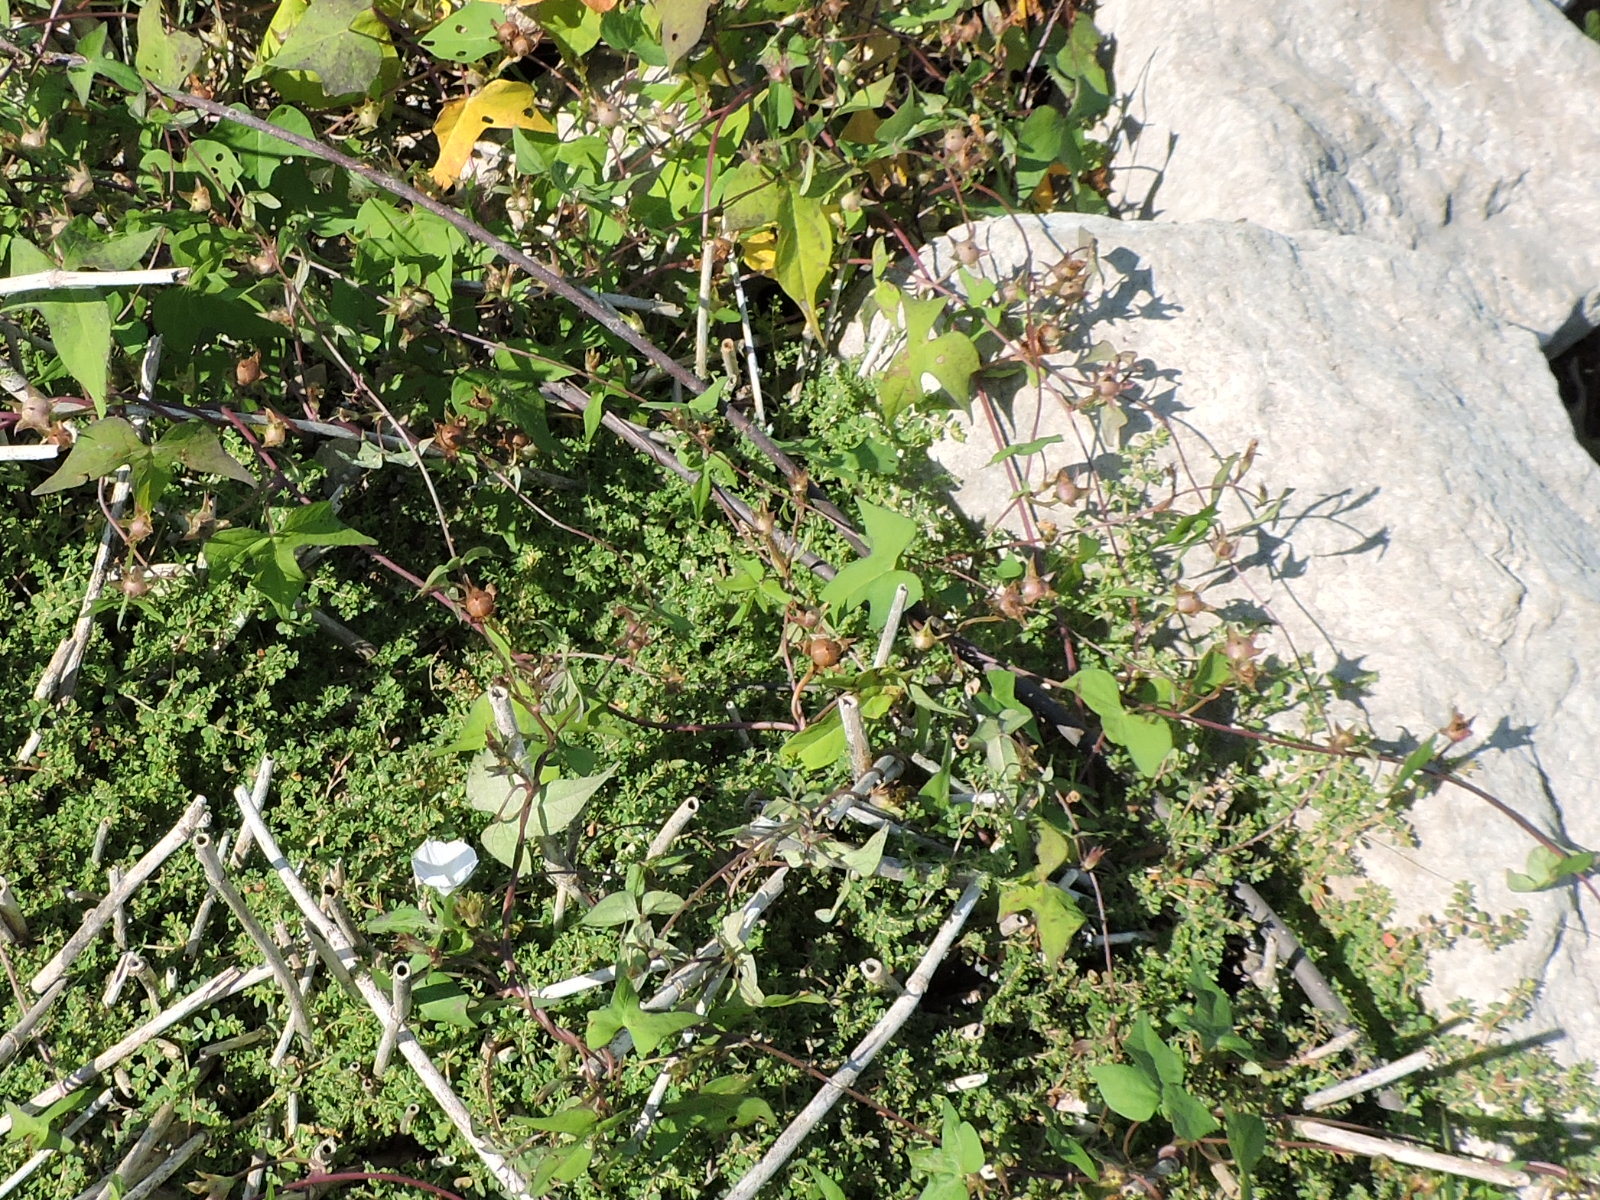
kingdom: Plantae
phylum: Tracheophyta
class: Magnoliopsida
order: Solanales
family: Convolvulaceae
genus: Ipomoea
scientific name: Ipomoea lacunosa
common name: White morning-glory
